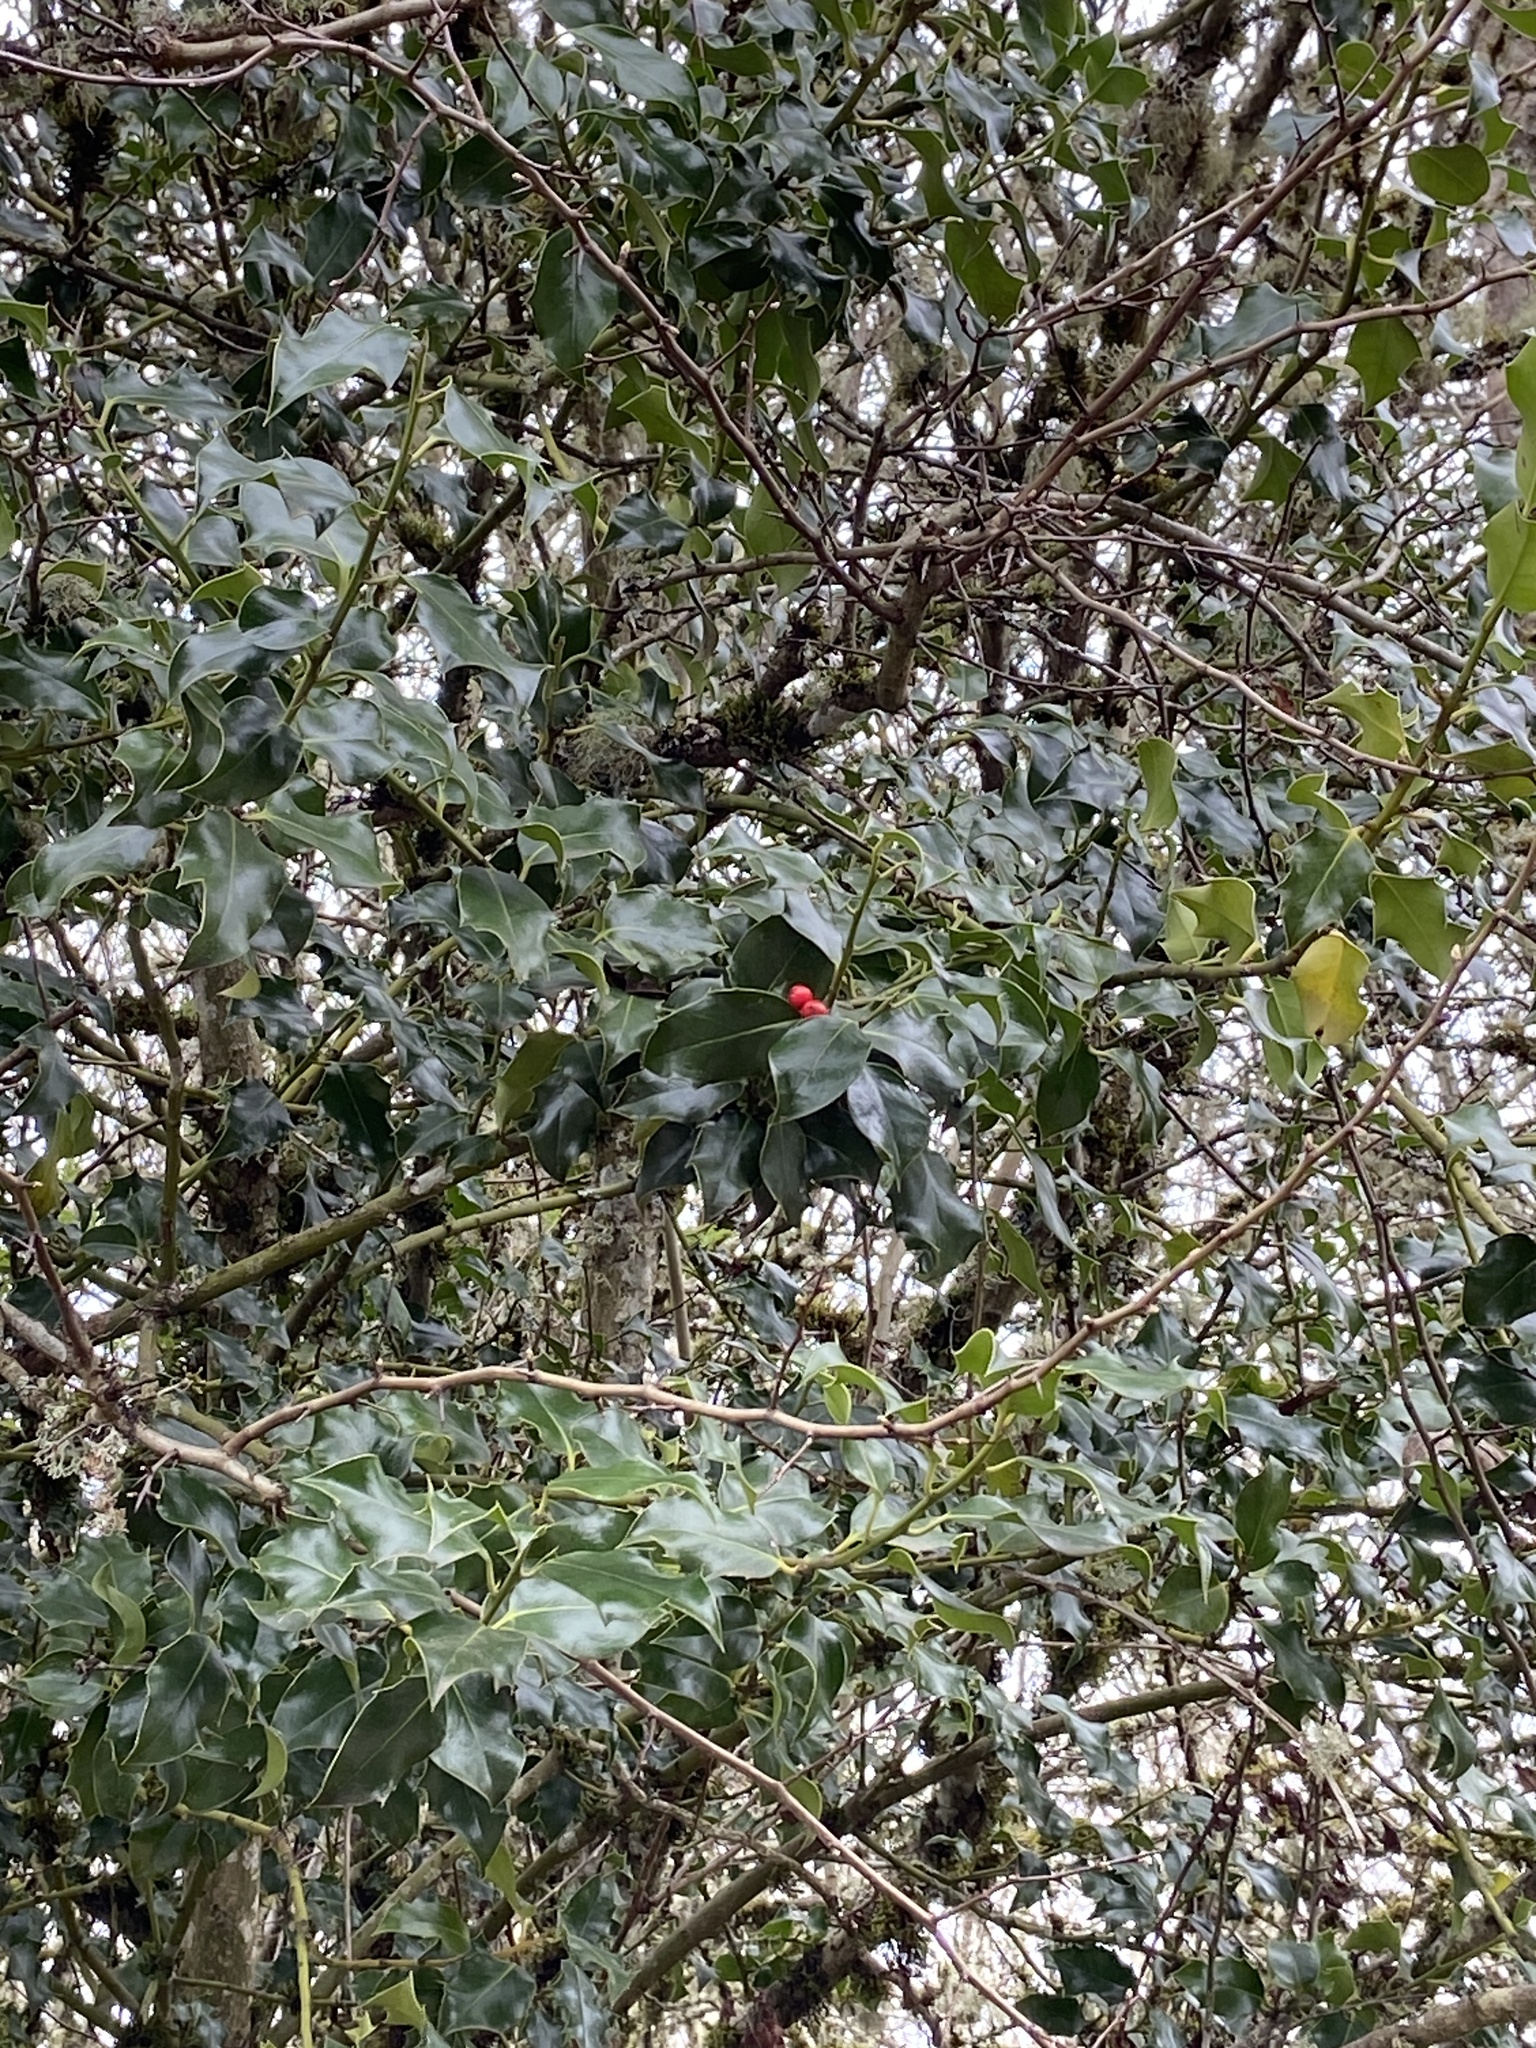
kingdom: Plantae
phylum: Tracheophyta
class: Magnoliopsida
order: Aquifoliales
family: Aquifoliaceae
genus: Ilex
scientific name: Ilex aquifolium
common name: English holly
